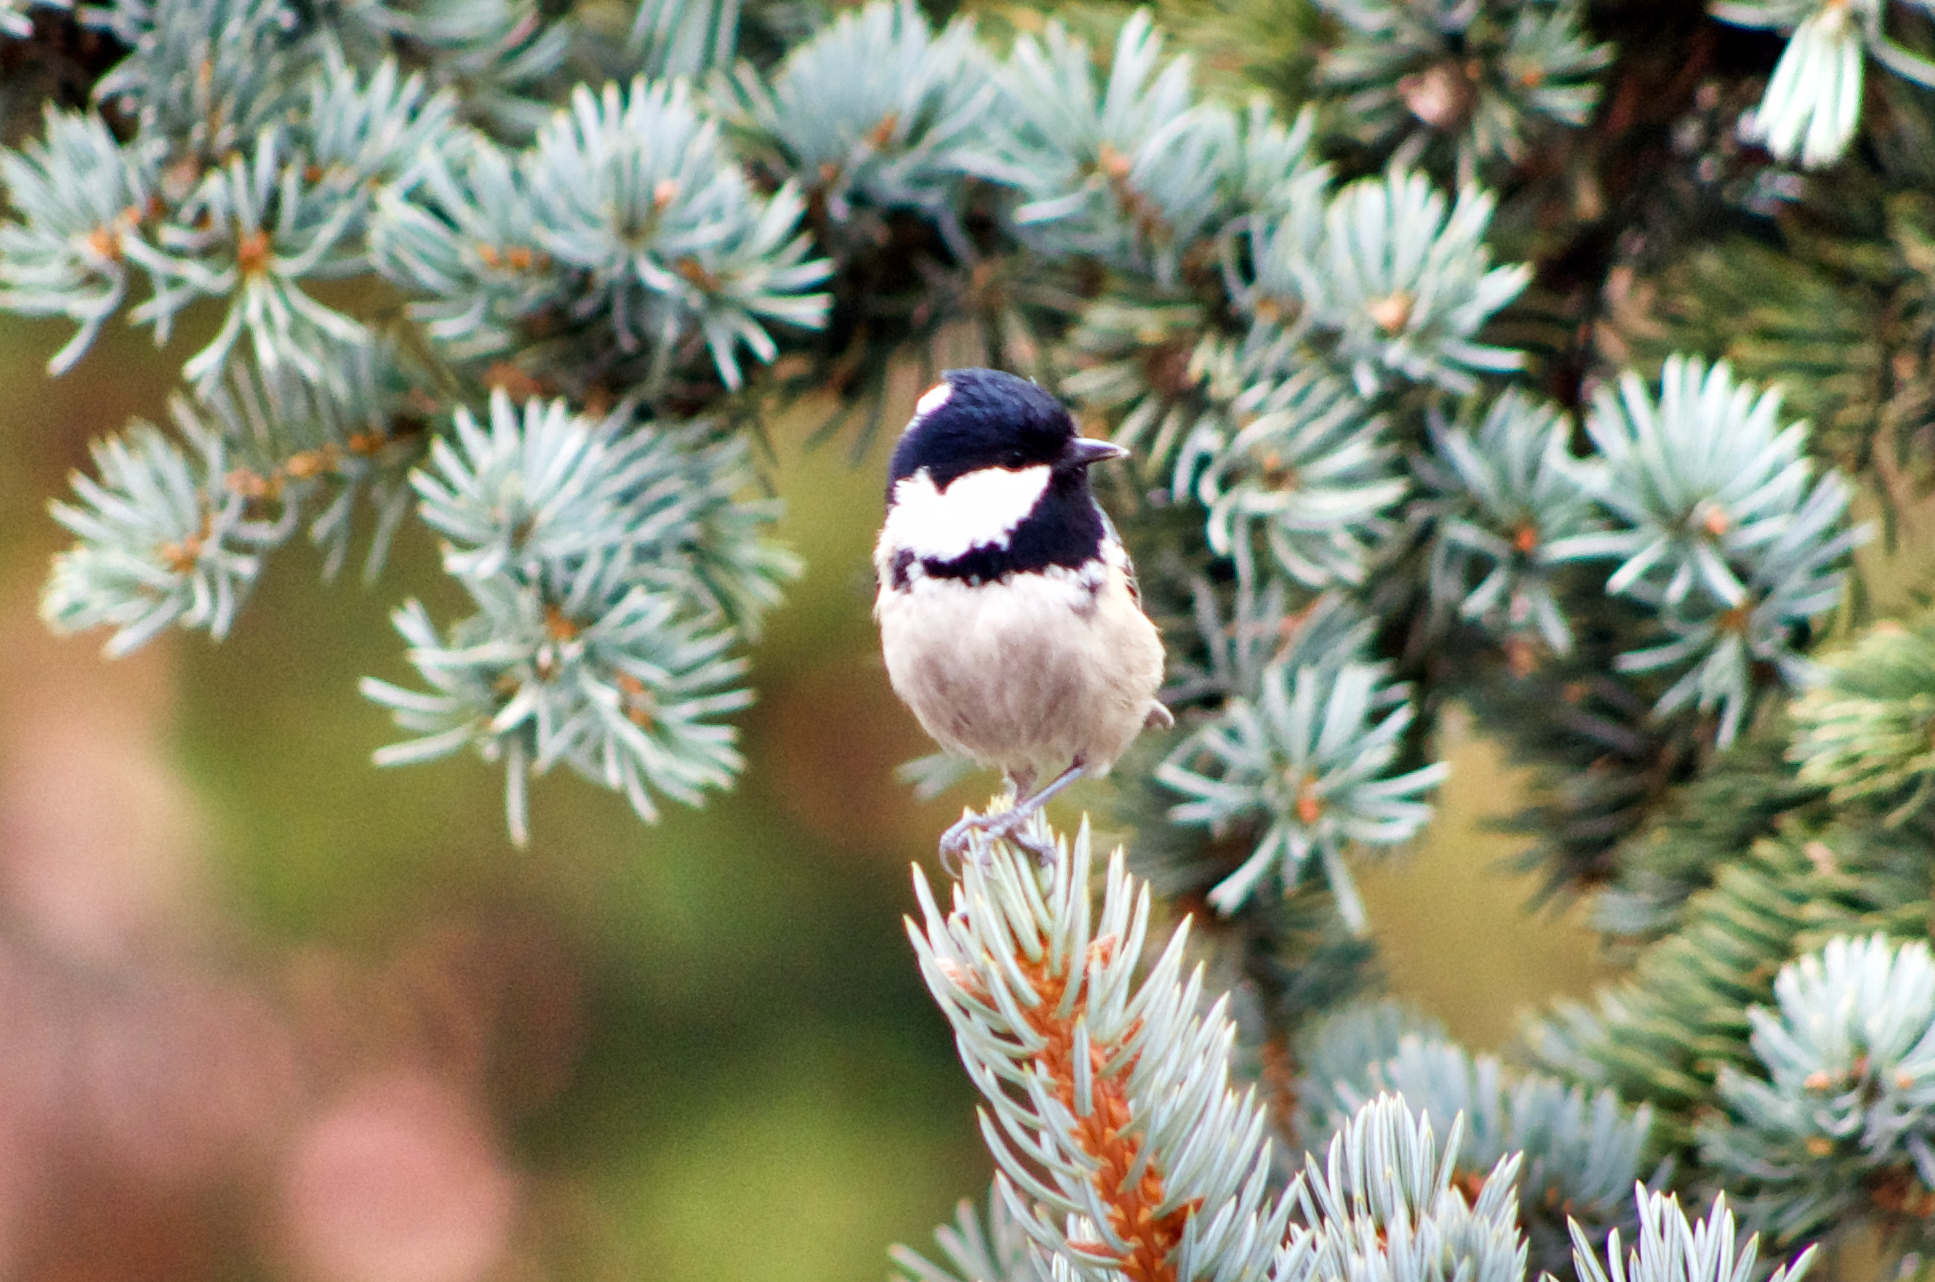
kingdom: Animalia
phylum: Chordata
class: Aves
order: Passeriformes
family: Paridae
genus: Periparus
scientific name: Periparus ater
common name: Coal tit
